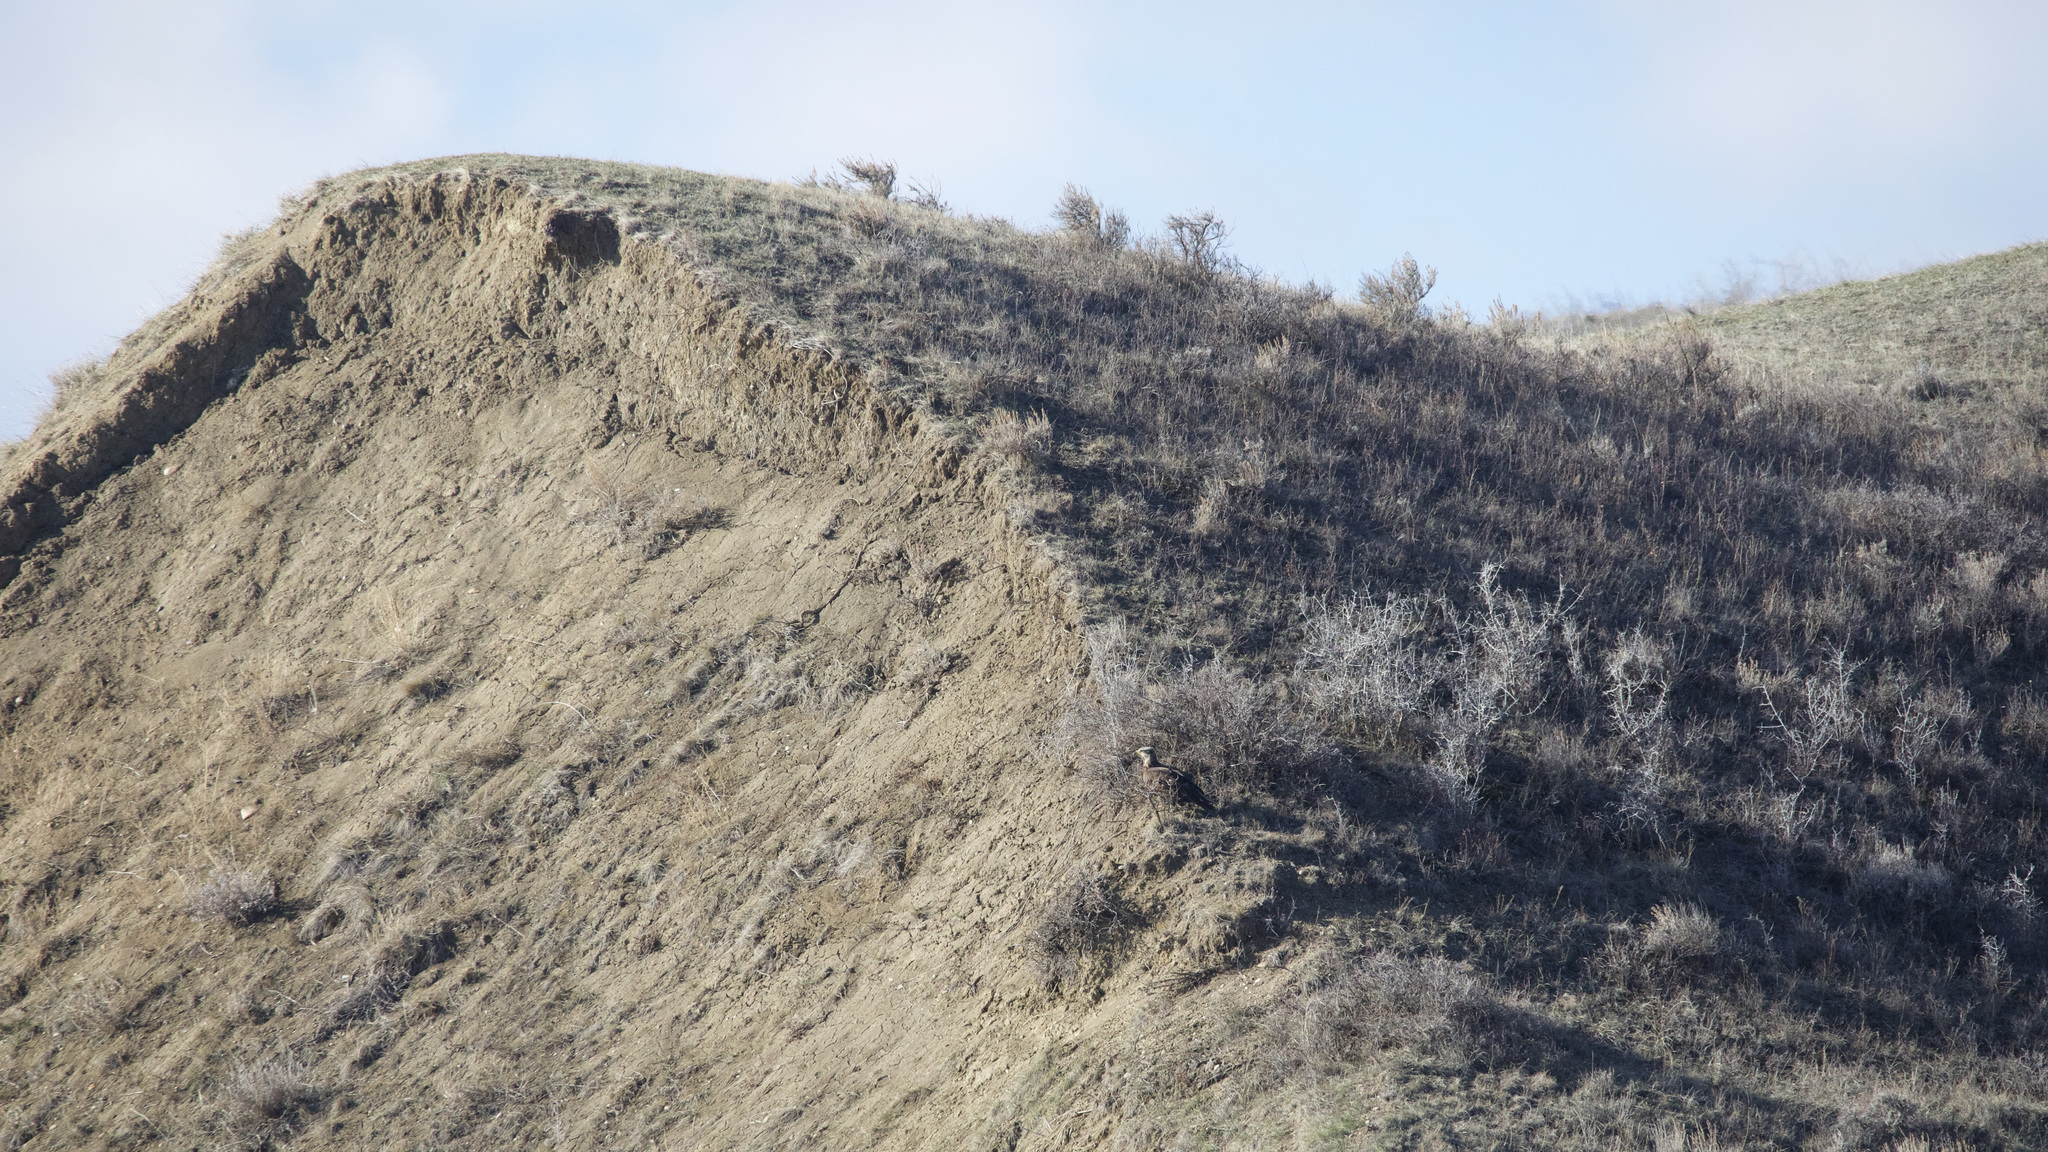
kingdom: Animalia
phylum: Chordata
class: Aves
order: Accipitriformes
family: Accipitridae
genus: Haliaeetus
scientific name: Haliaeetus leucocephalus
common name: Bald eagle
